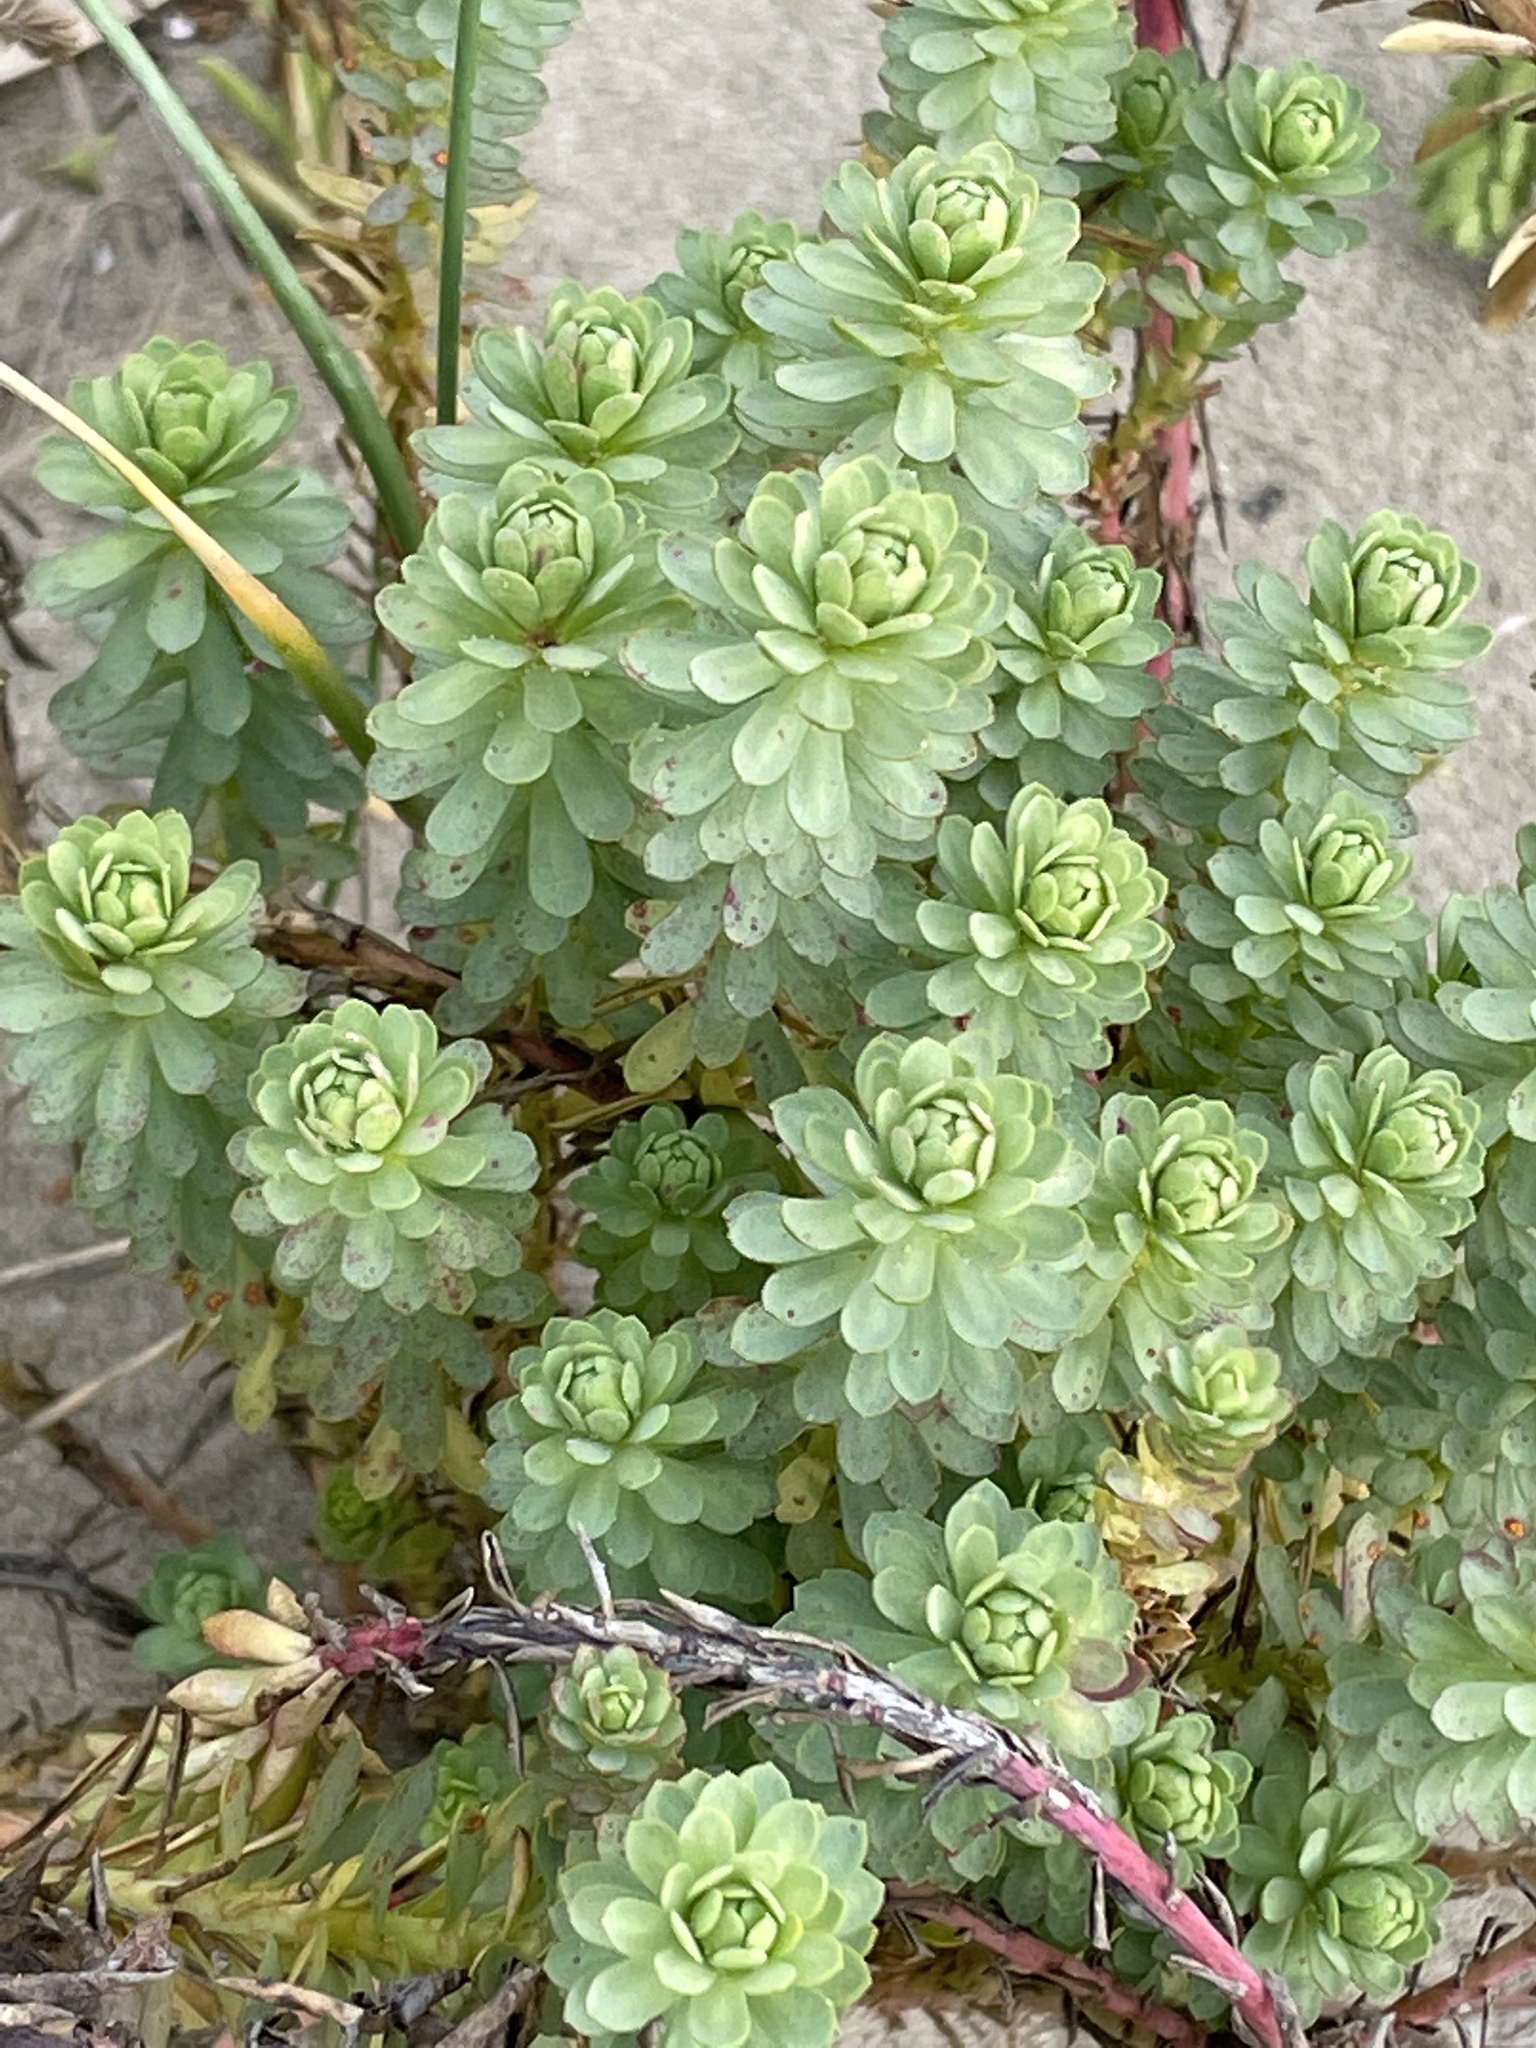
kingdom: Plantae
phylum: Tracheophyta
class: Magnoliopsida
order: Malpighiales
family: Euphorbiaceae
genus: Euphorbia
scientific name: Euphorbia paralias
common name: Sea spurge
